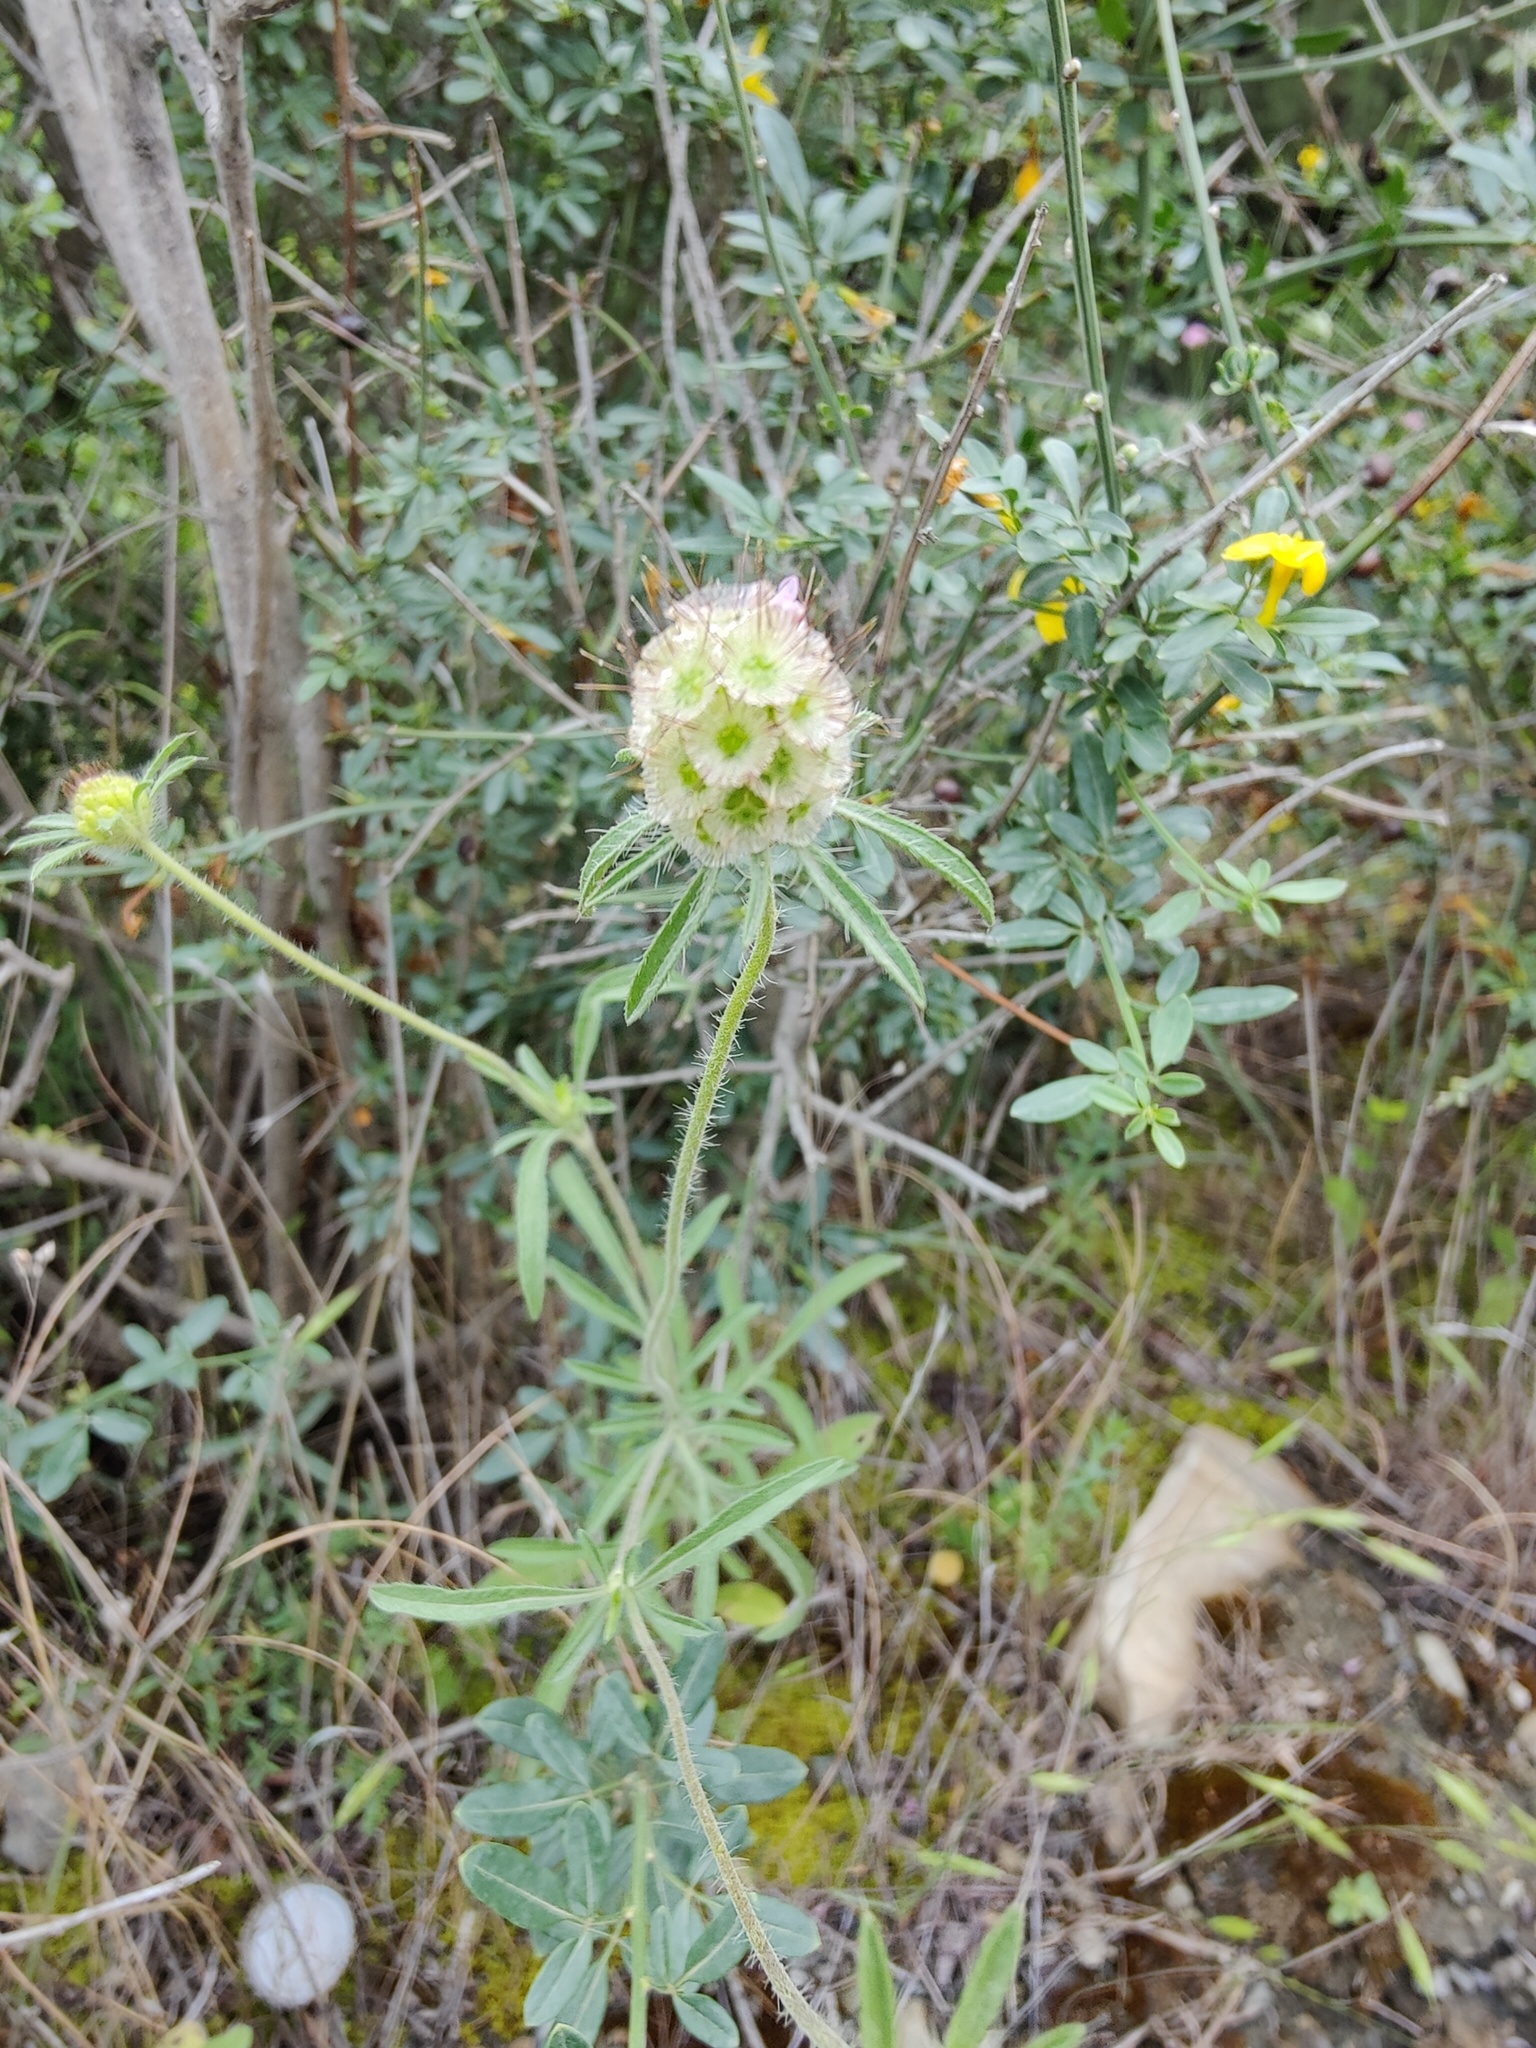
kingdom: Plantae
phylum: Tracheophyta
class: Magnoliopsida
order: Dipsacales
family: Caprifoliaceae
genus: Lomelosia
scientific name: Lomelosia micrantha
